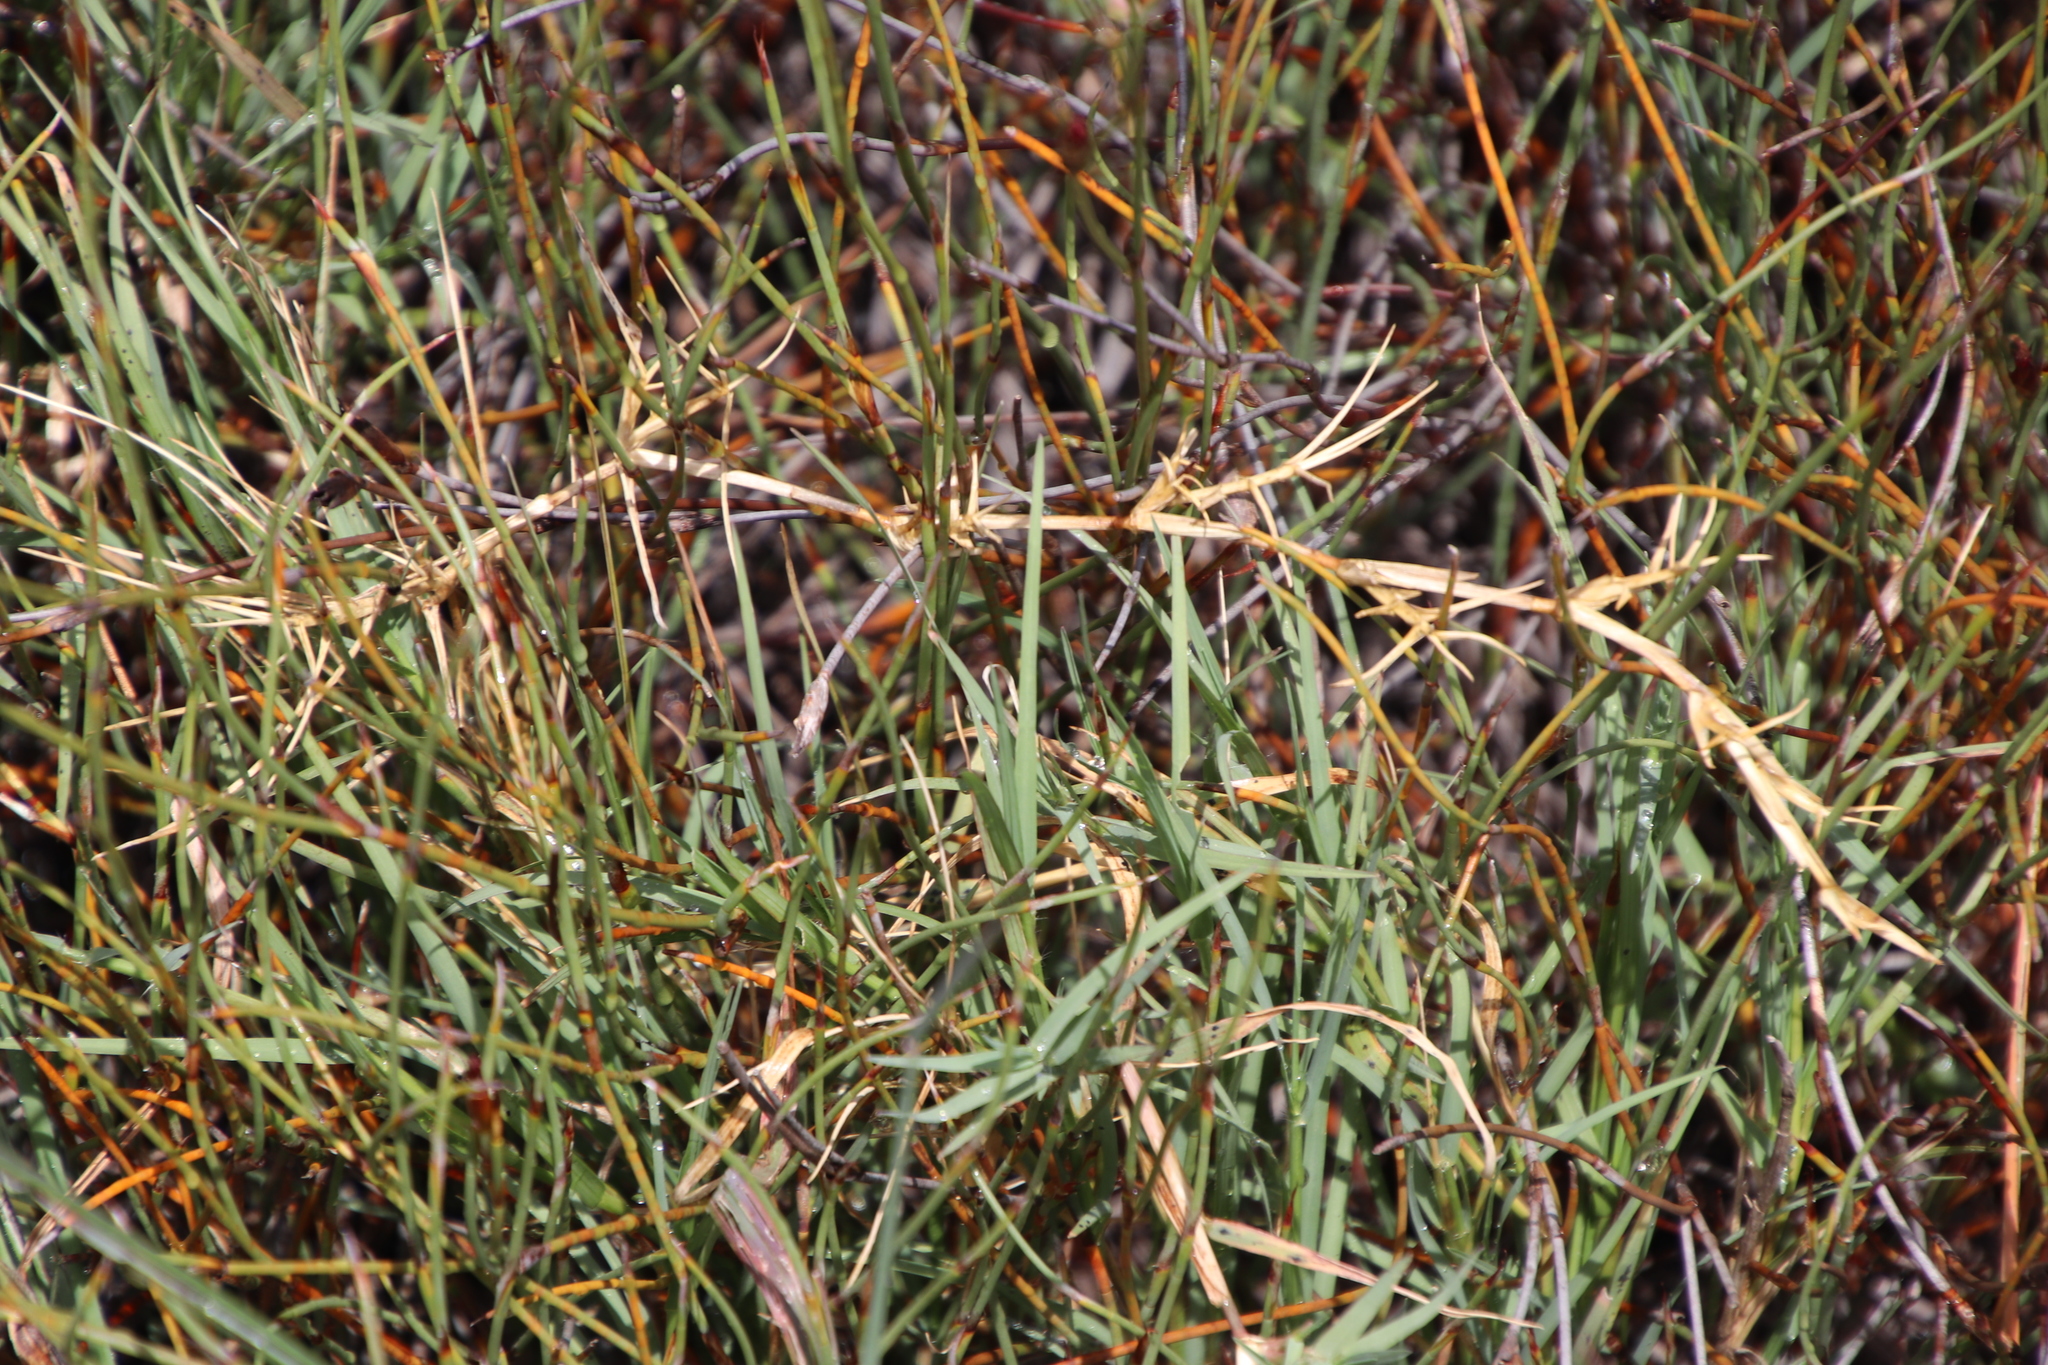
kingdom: Plantae
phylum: Tracheophyta
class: Liliopsida
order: Poales
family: Poaceae
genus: Cynodon
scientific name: Cynodon dactylon
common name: Bermuda grass
